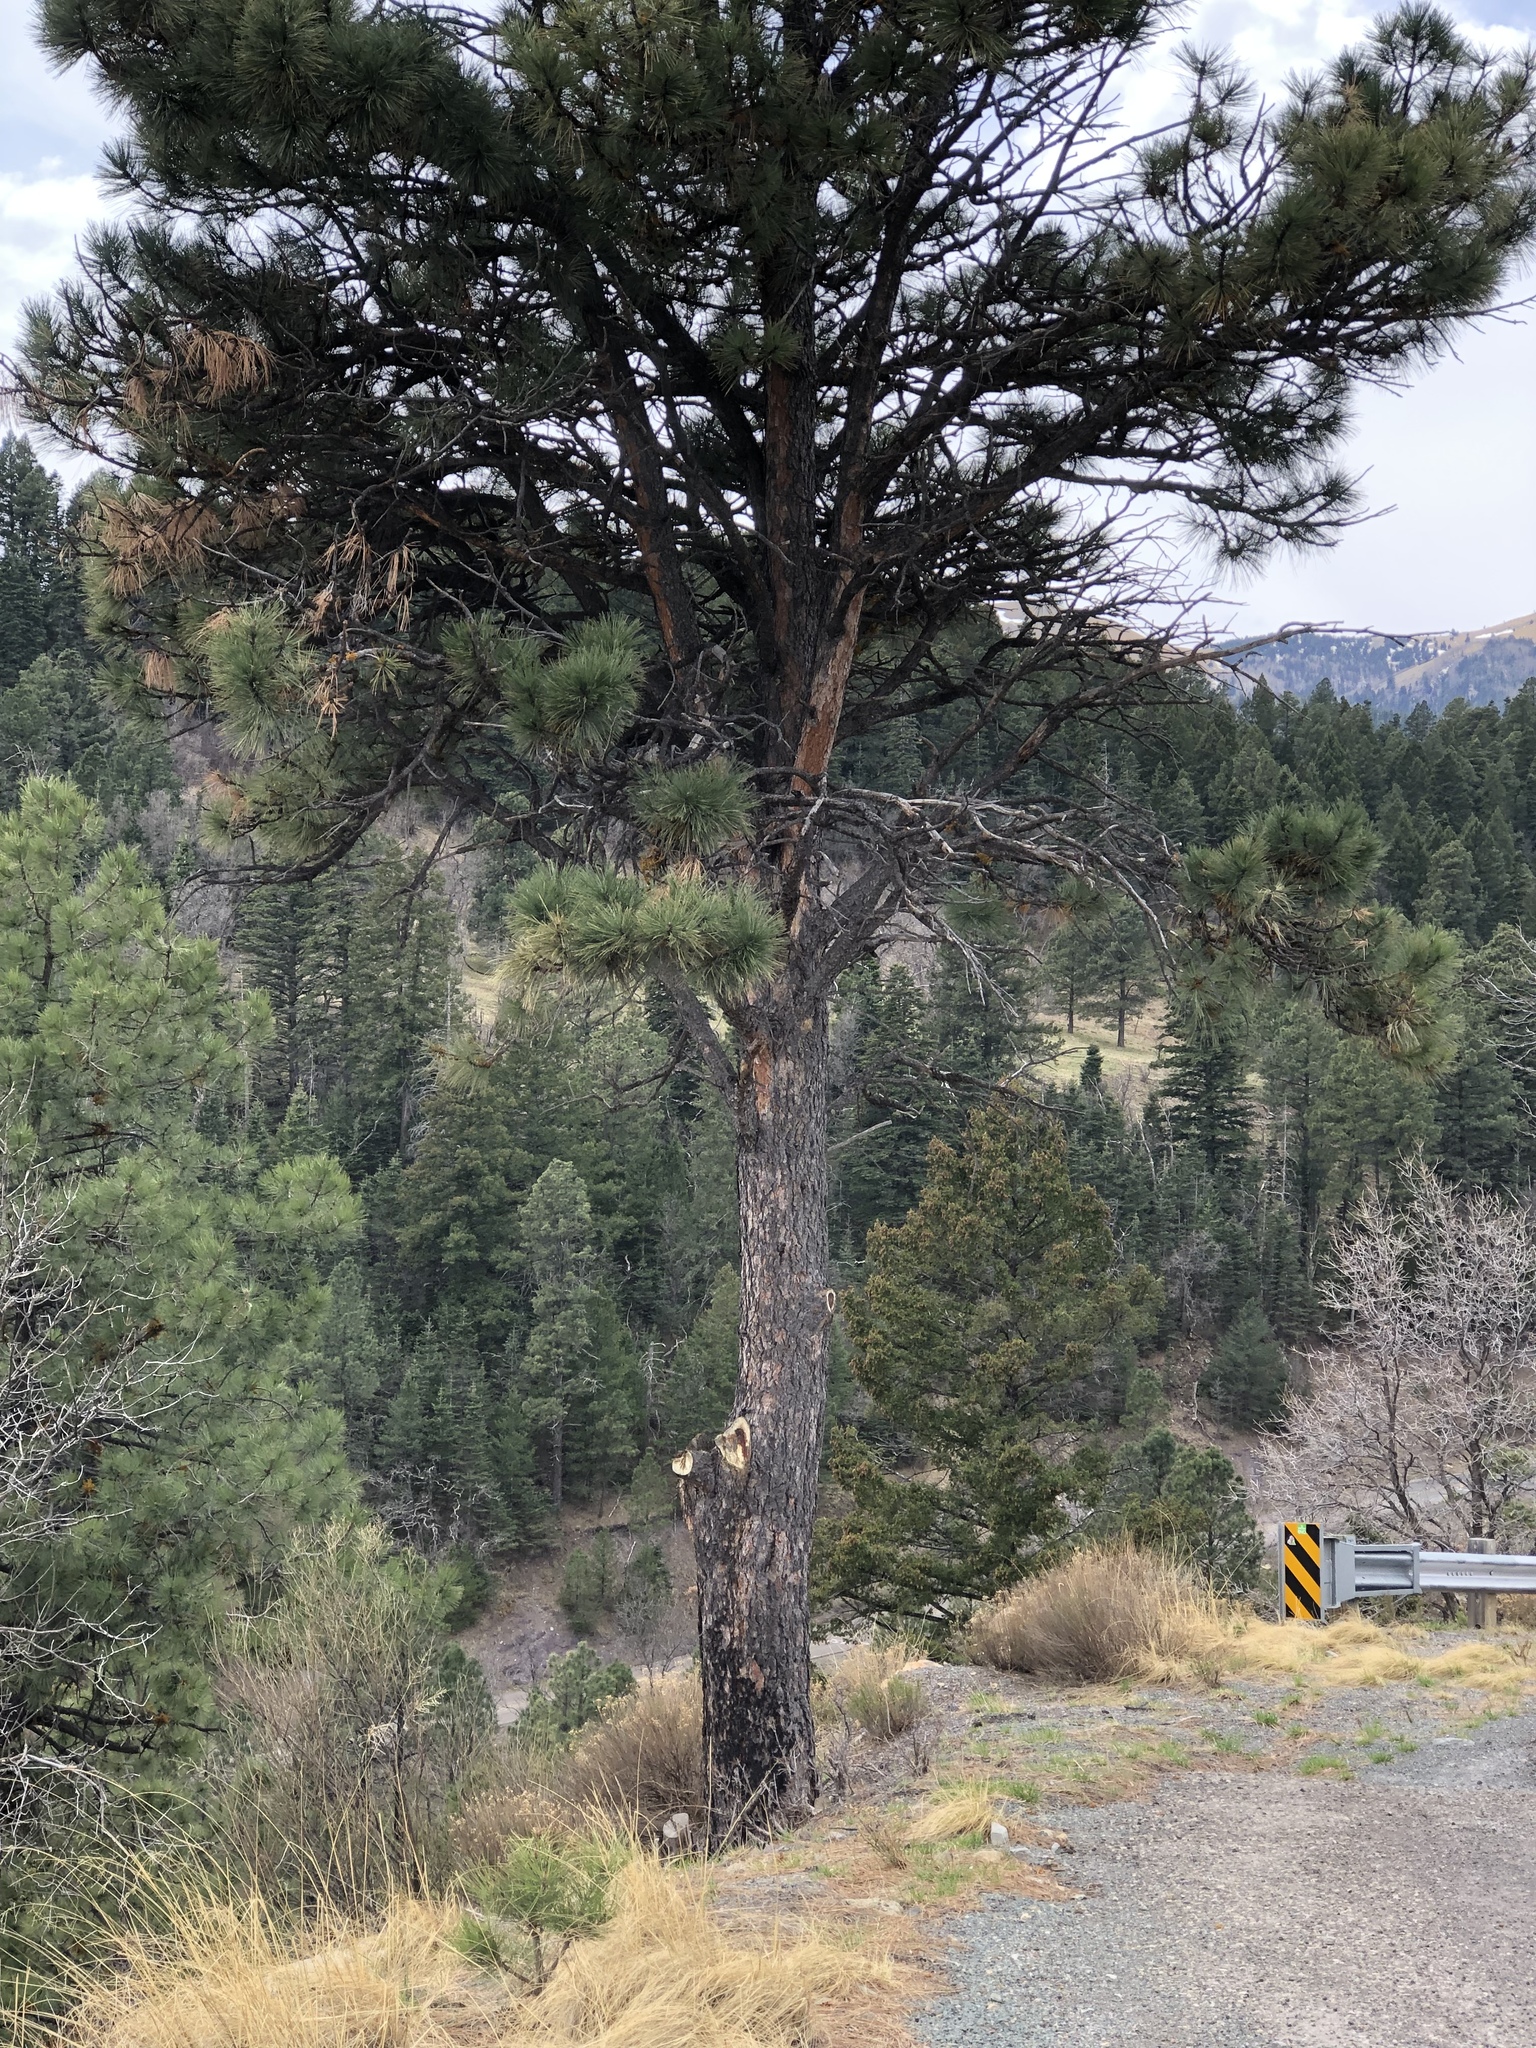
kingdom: Plantae
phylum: Tracheophyta
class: Pinopsida
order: Pinales
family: Pinaceae
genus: Pinus
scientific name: Pinus ponderosa
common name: Western yellow-pine
